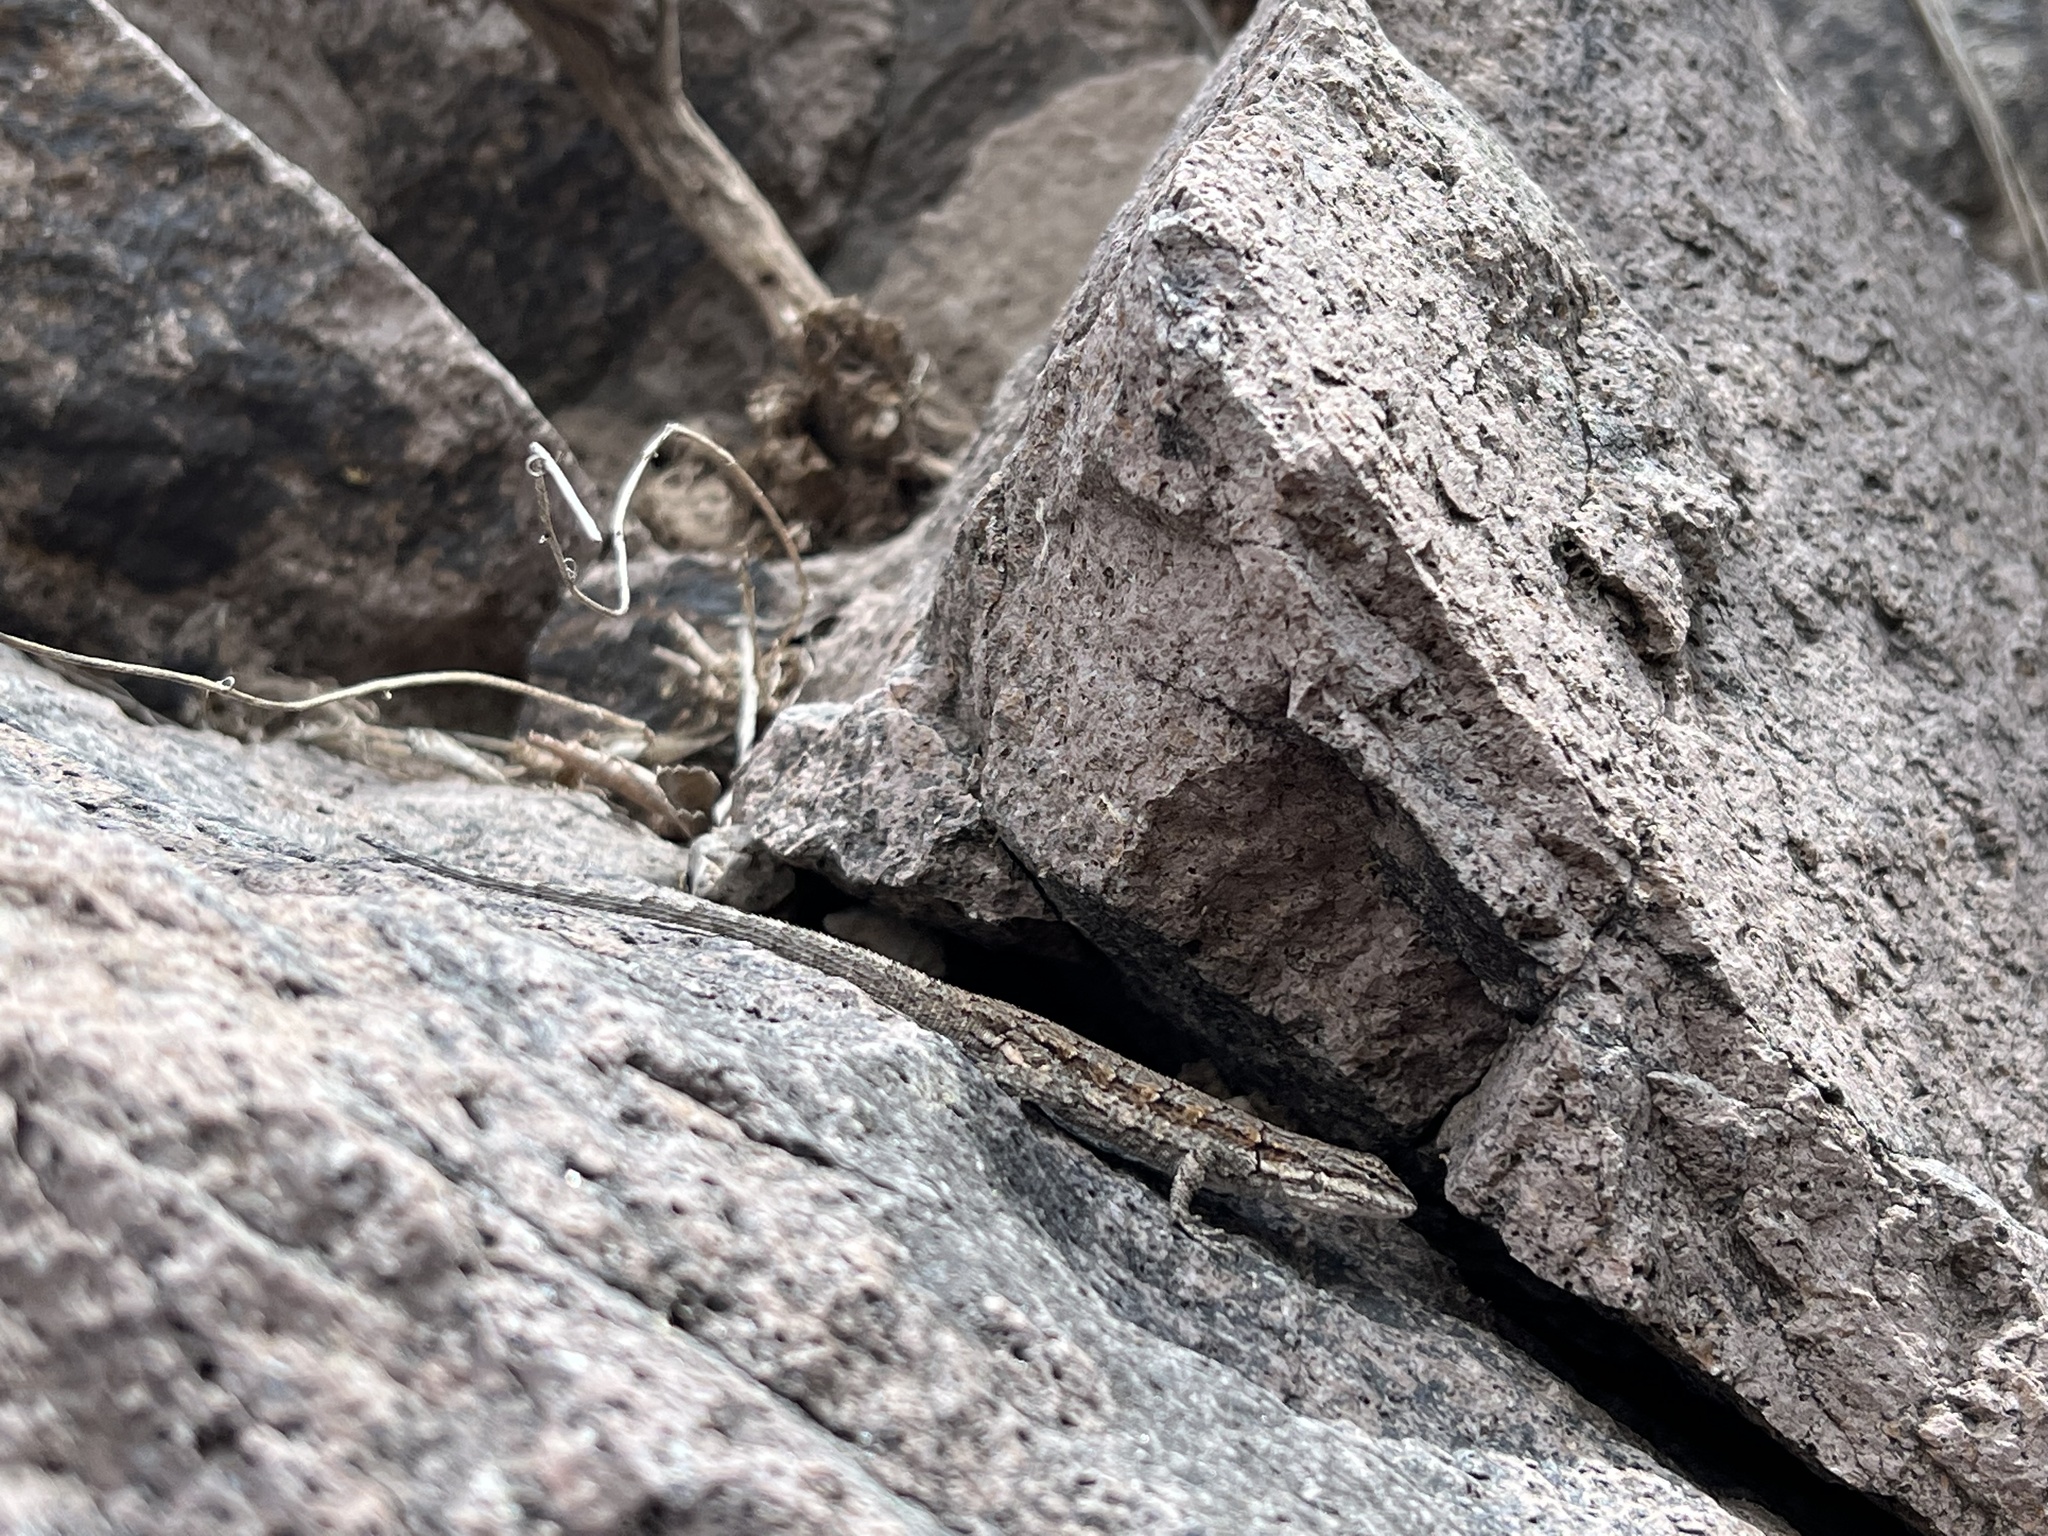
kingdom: Animalia
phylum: Chordata
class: Squamata
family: Phrynosomatidae
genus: Urosaurus
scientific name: Urosaurus ornatus
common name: Ornate tree lizard
